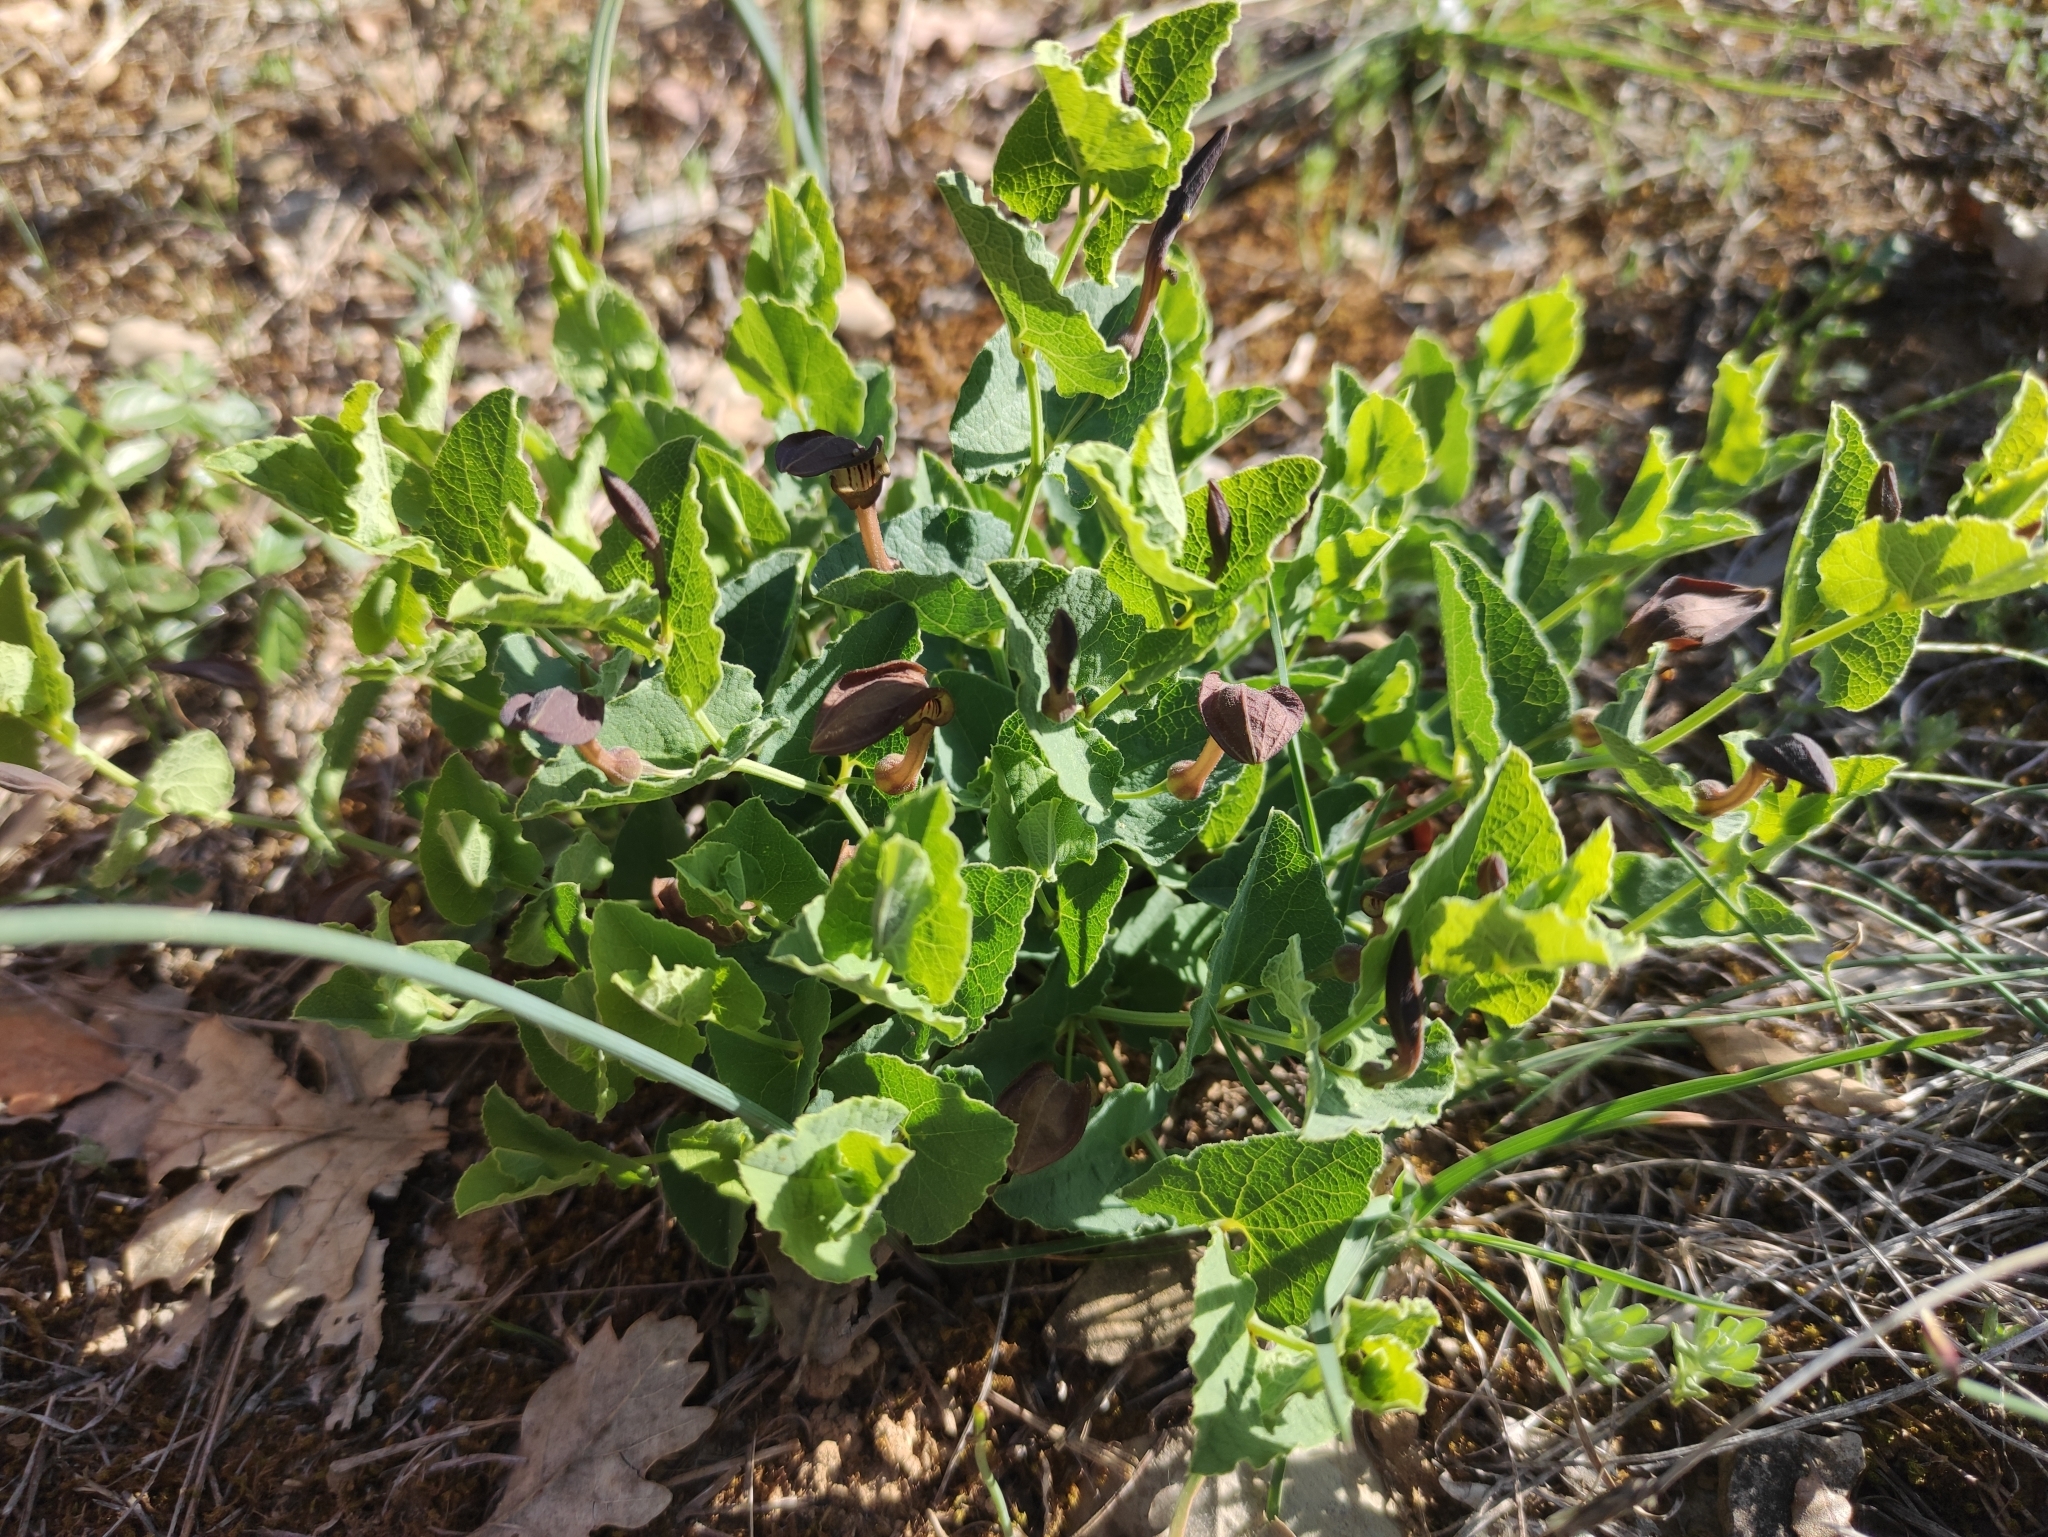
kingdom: Plantae
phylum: Tracheophyta
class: Magnoliopsida
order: Piperales
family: Aristolochiaceae
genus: Aristolochia
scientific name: Aristolochia pistolochia
